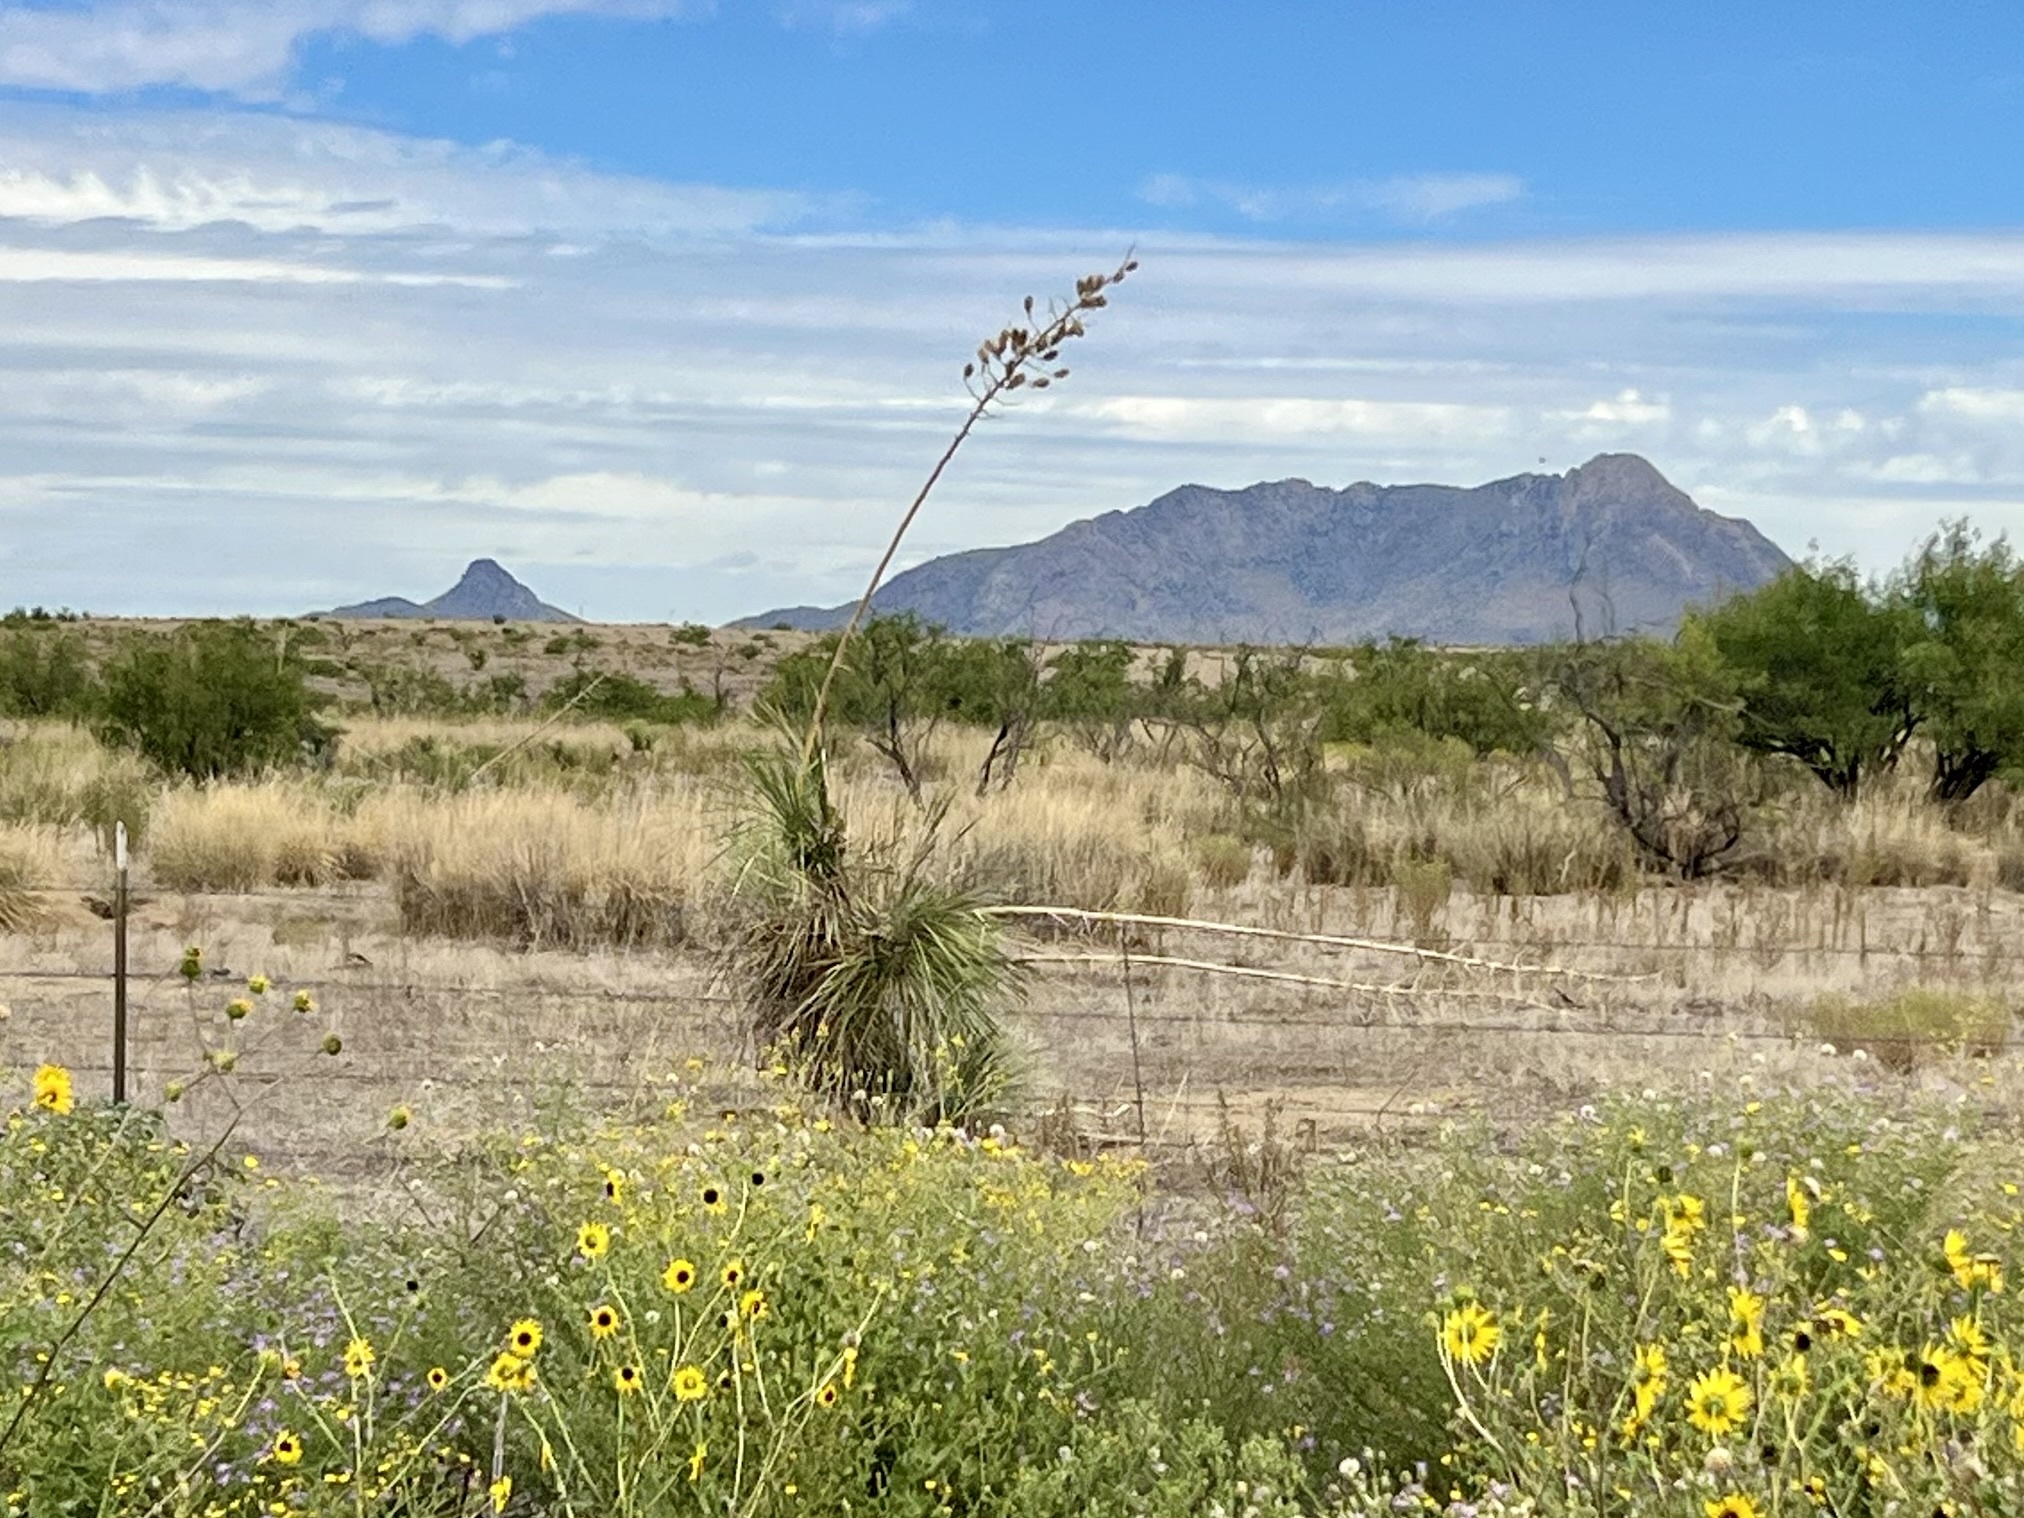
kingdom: Plantae
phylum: Tracheophyta
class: Liliopsida
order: Asparagales
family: Asparagaceae
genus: Yucca
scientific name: Yucca elata
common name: Palmella
